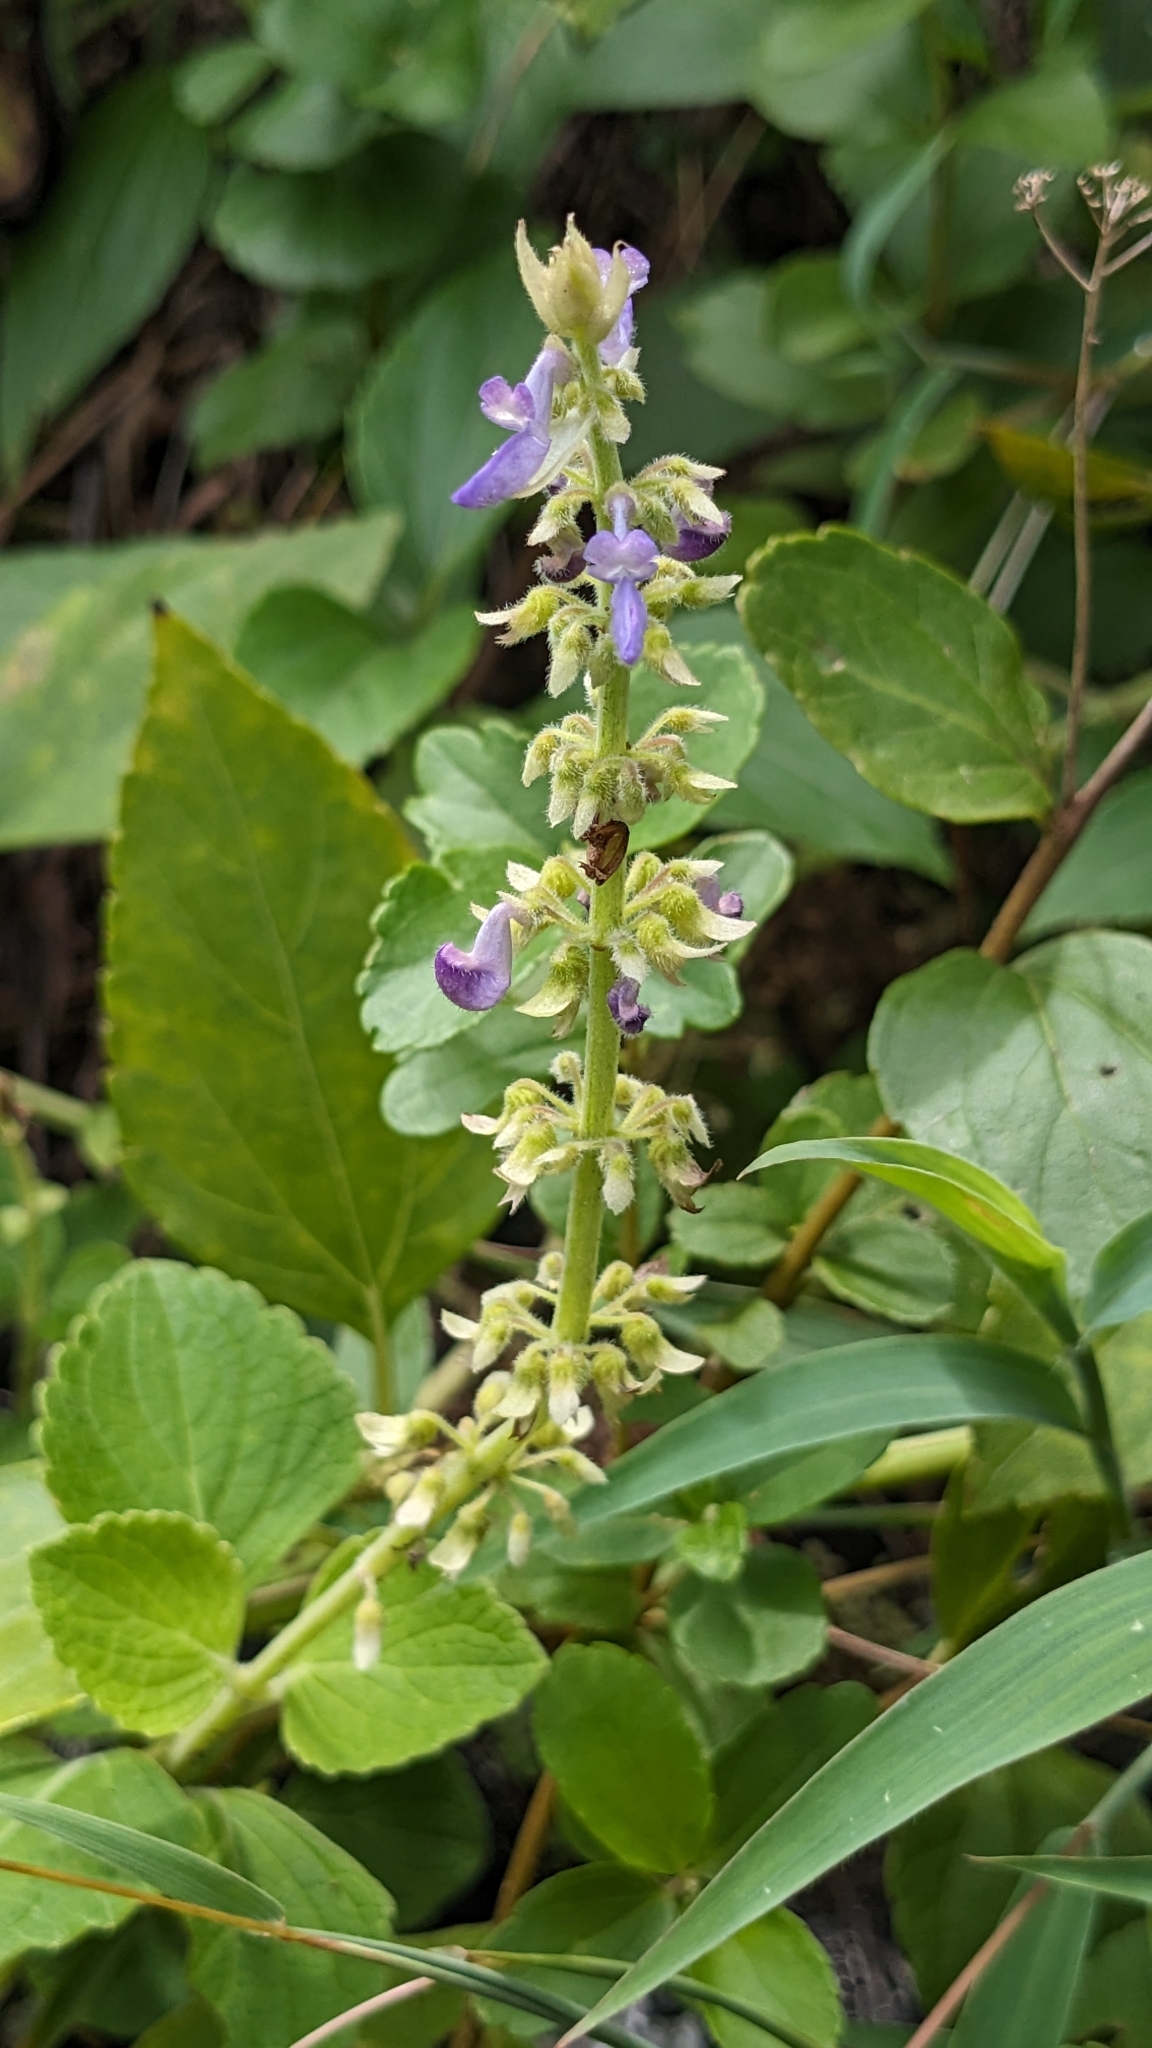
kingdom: Plantae
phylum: Tracheophyta
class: Magnoliopsida
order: Lamiales
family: Lamiaceae
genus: Coleus
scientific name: Coleus scutellarioides
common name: Coleus
